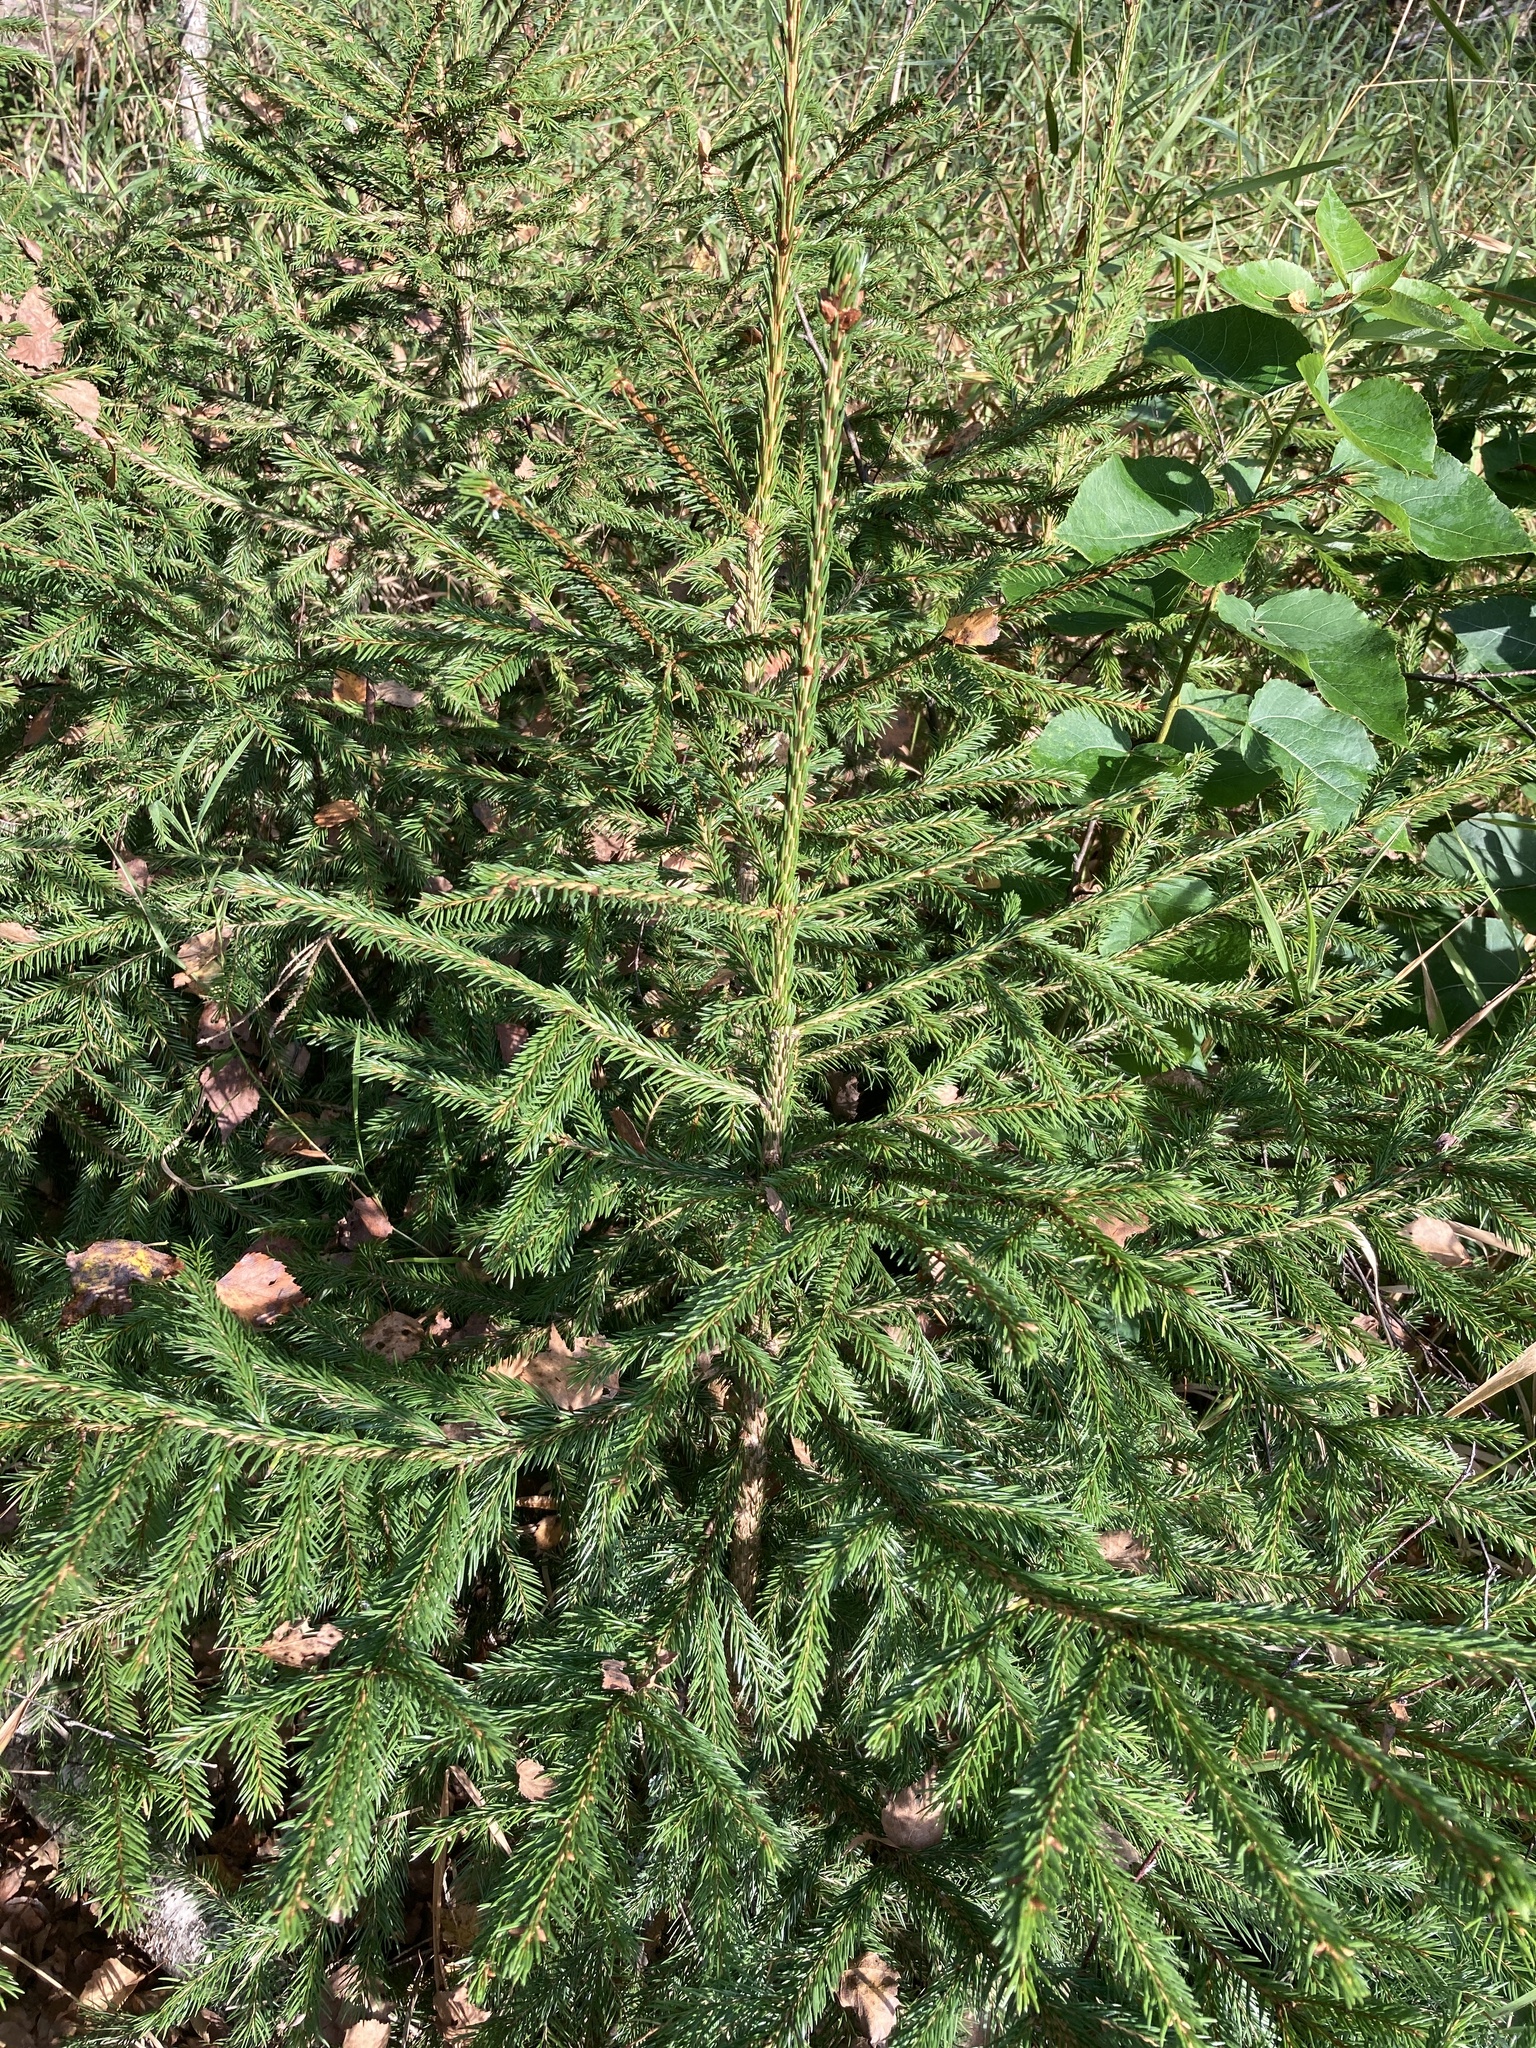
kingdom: Plantae
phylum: Tracheophyta
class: Pinopsida
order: Pinales
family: Pinaceae
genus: Picea
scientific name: Picea abies
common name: Norway spruce
